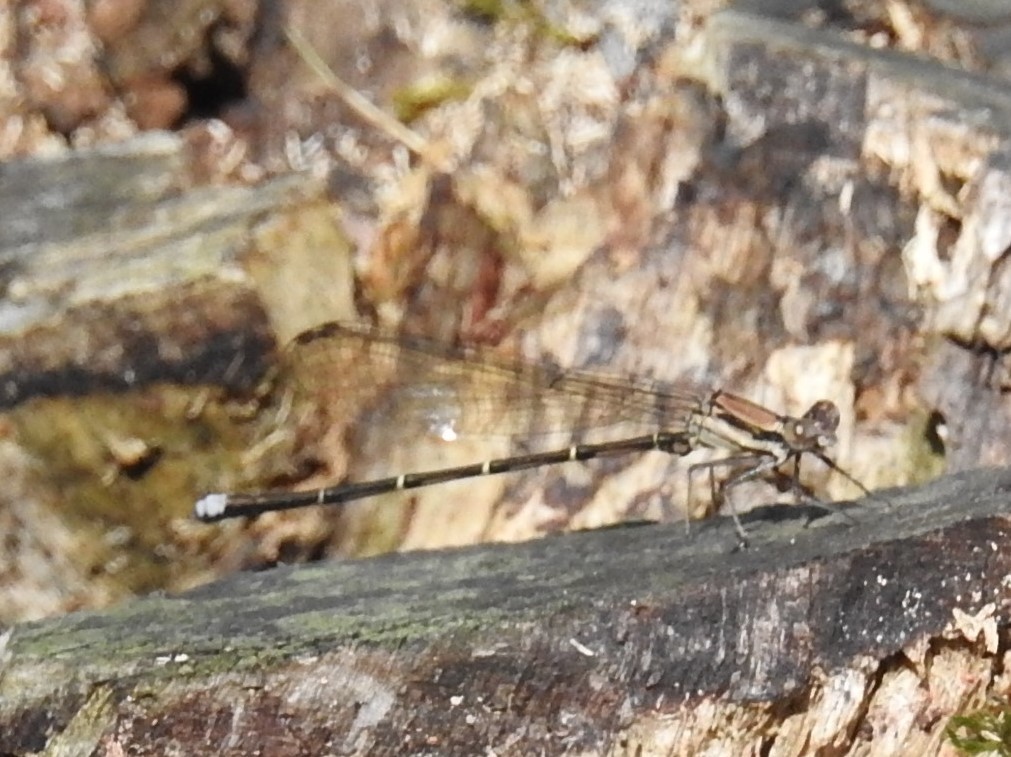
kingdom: Animalia
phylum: Arthropoda
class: Insecta
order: Odonata
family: Coenagrionidae
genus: Argia
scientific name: Argia tibialis
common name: Blue-tipped dancer
